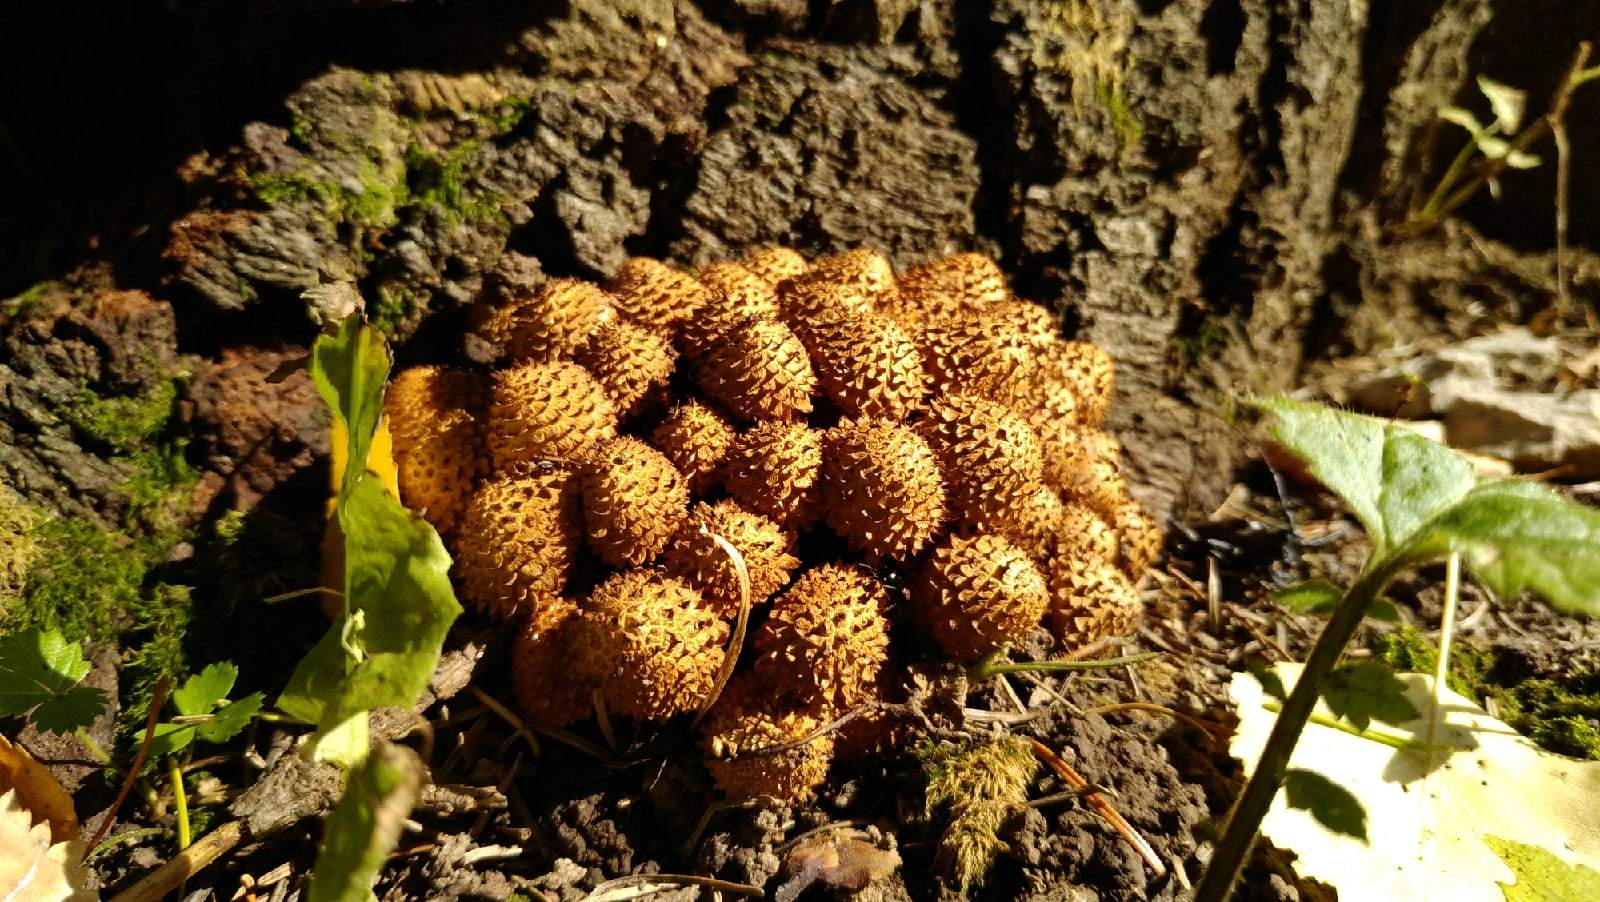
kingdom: Fungi
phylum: Basidiomycota
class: Agaricomycetes
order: Agaricales
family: Strophariaceae
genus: Pholiota
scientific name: Pholiota squarrosa
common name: Shaggy pholiota
